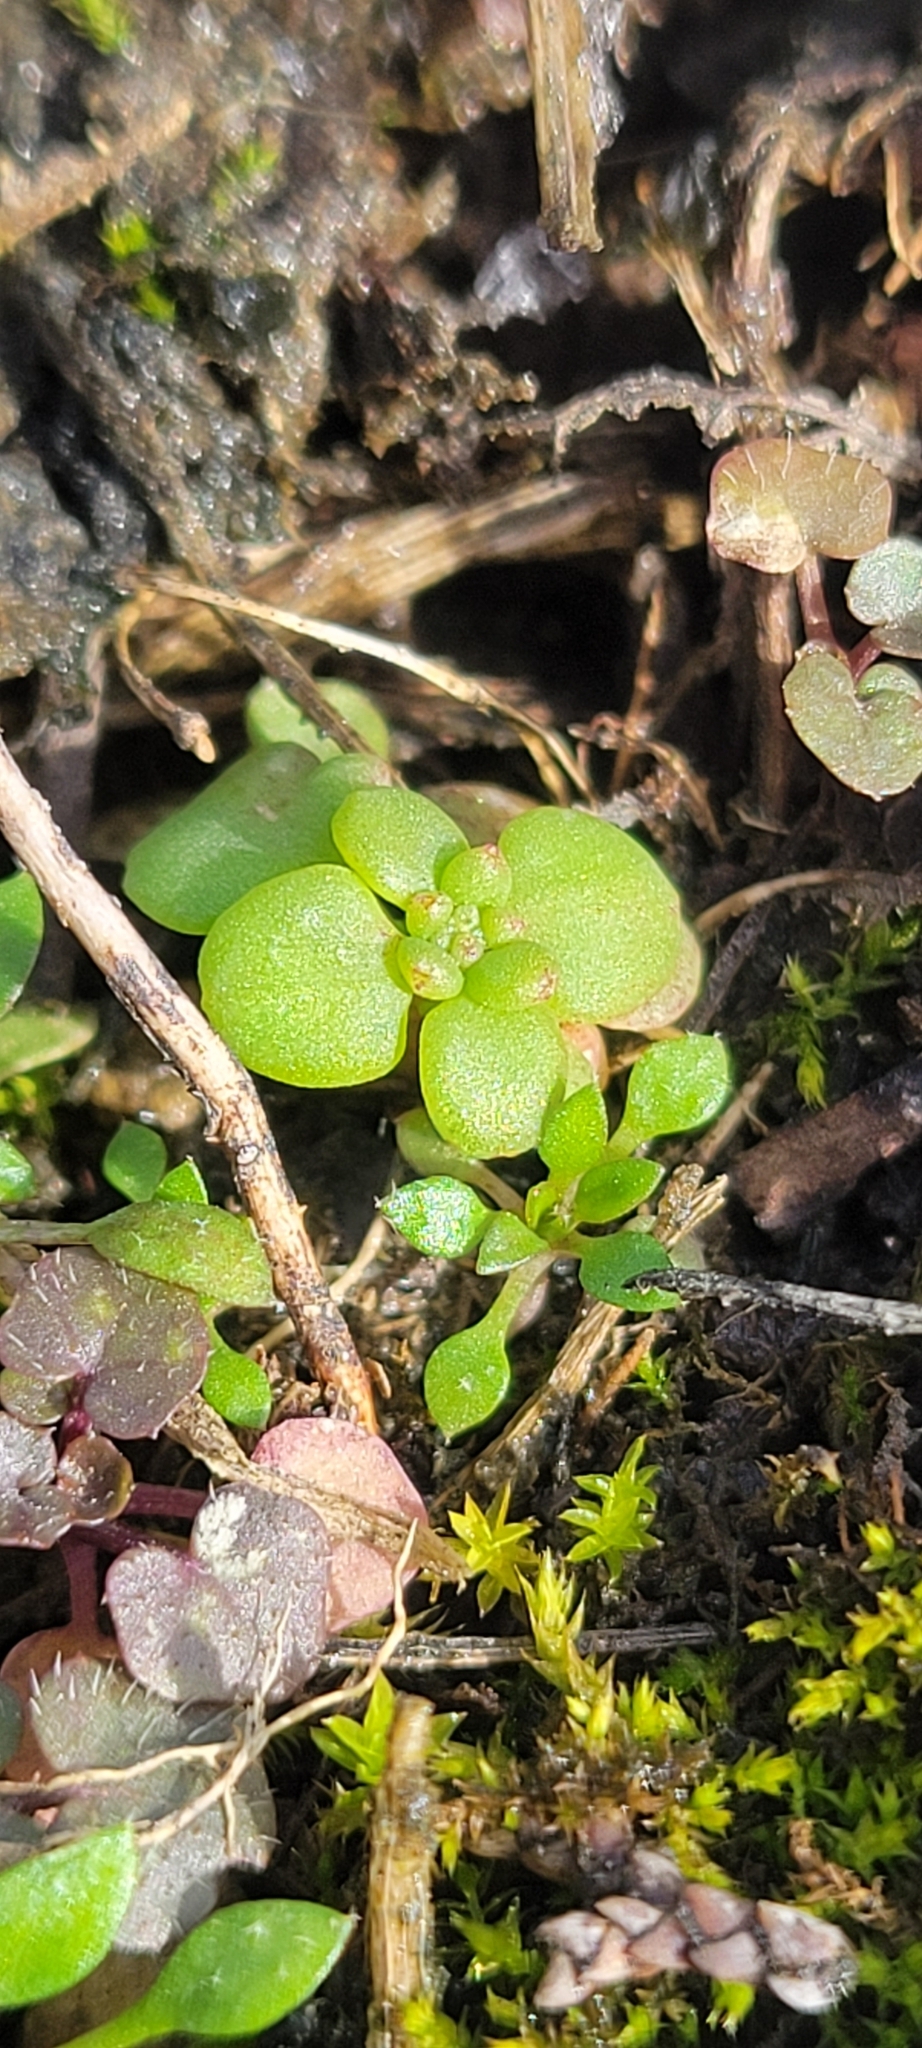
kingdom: Plantae
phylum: Tracheophyta
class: Magnoliopsida
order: Saxifragales
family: Crassulaceae
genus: Sedum
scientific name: Sedum pulchellum
